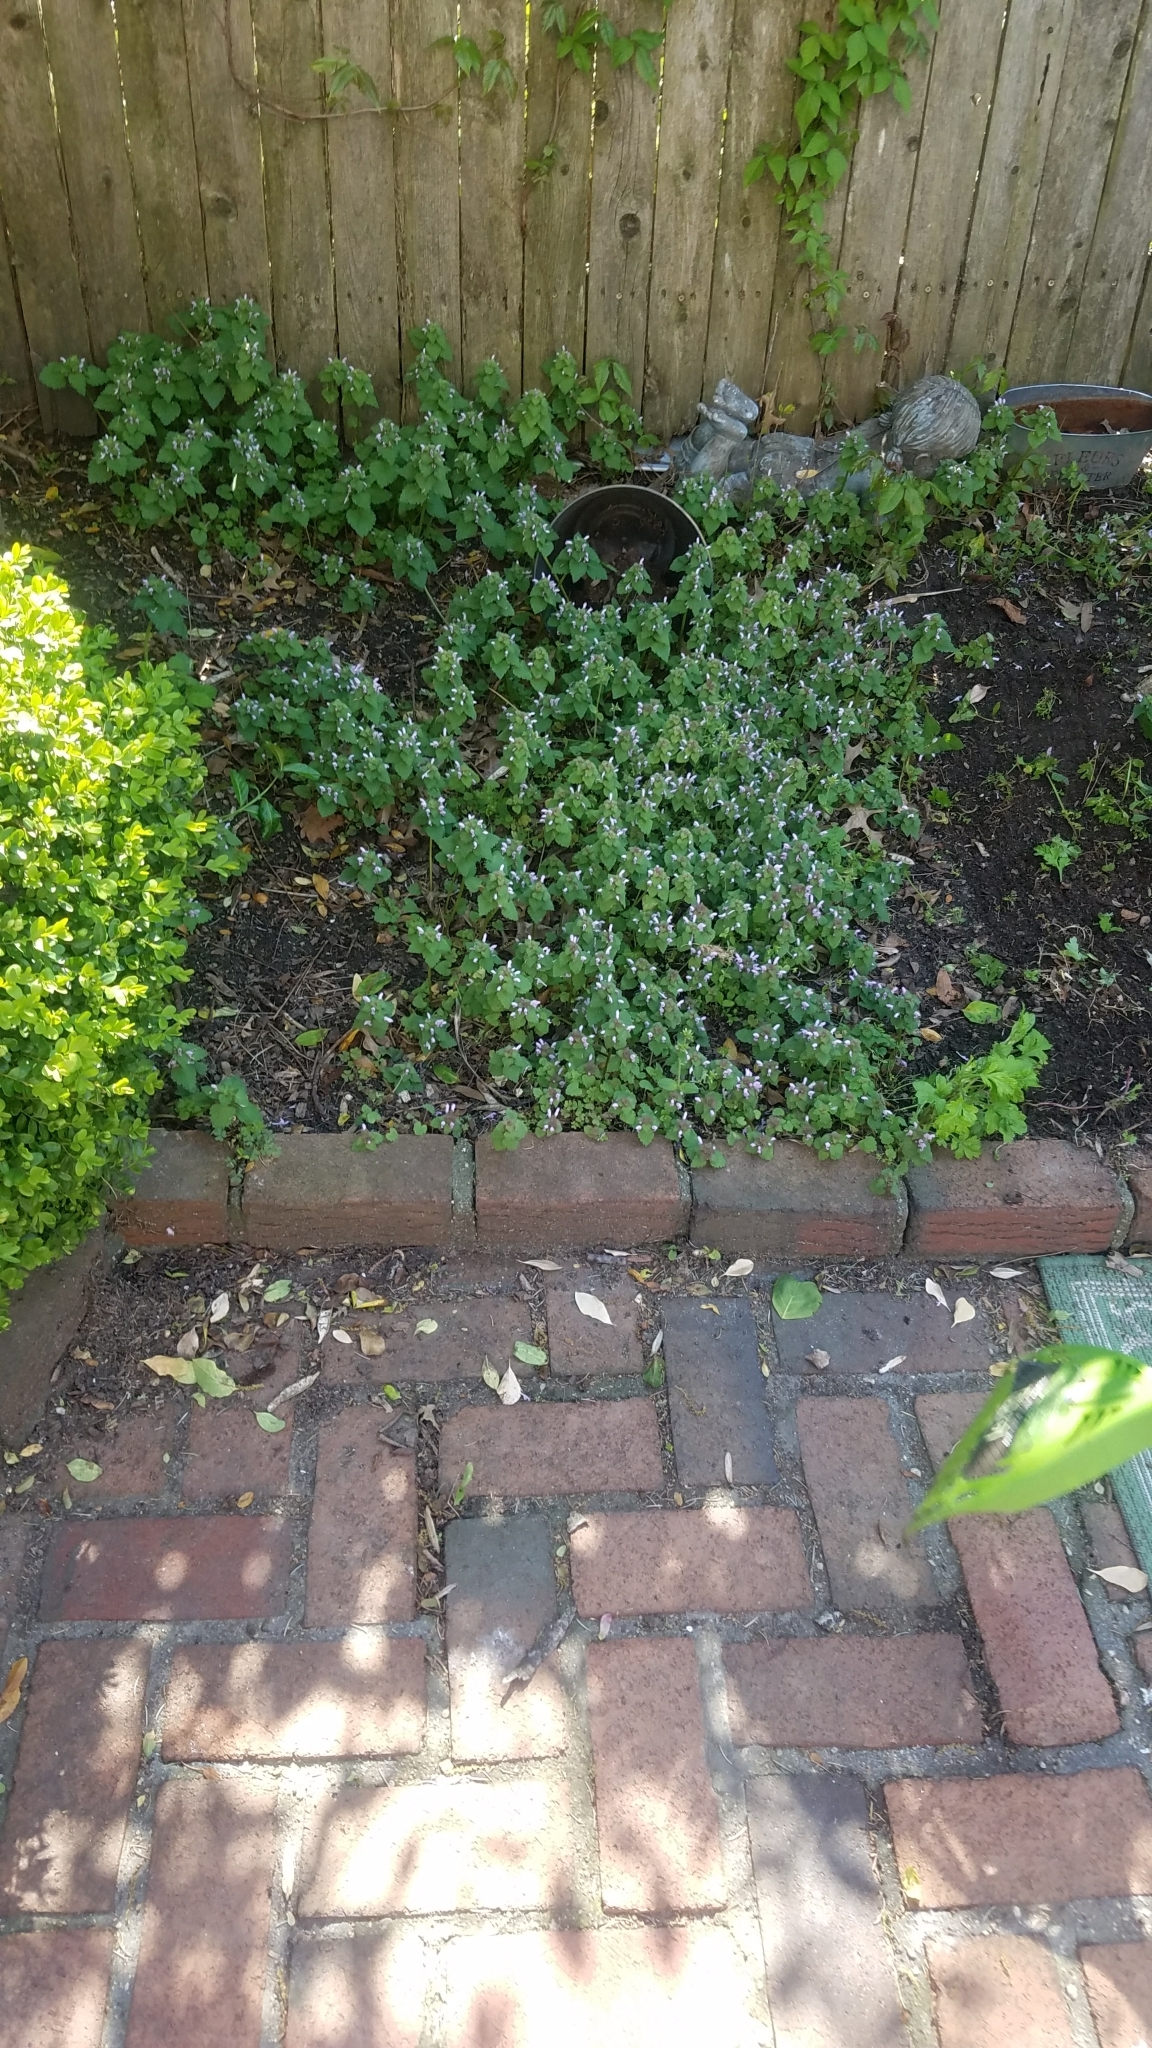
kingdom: Plantae
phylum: Tracheophyta
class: Magnoliopsida
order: Lamiales
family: Lamiaceae
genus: Lamium
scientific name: Lamium purpureum
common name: Red dead-nettle
